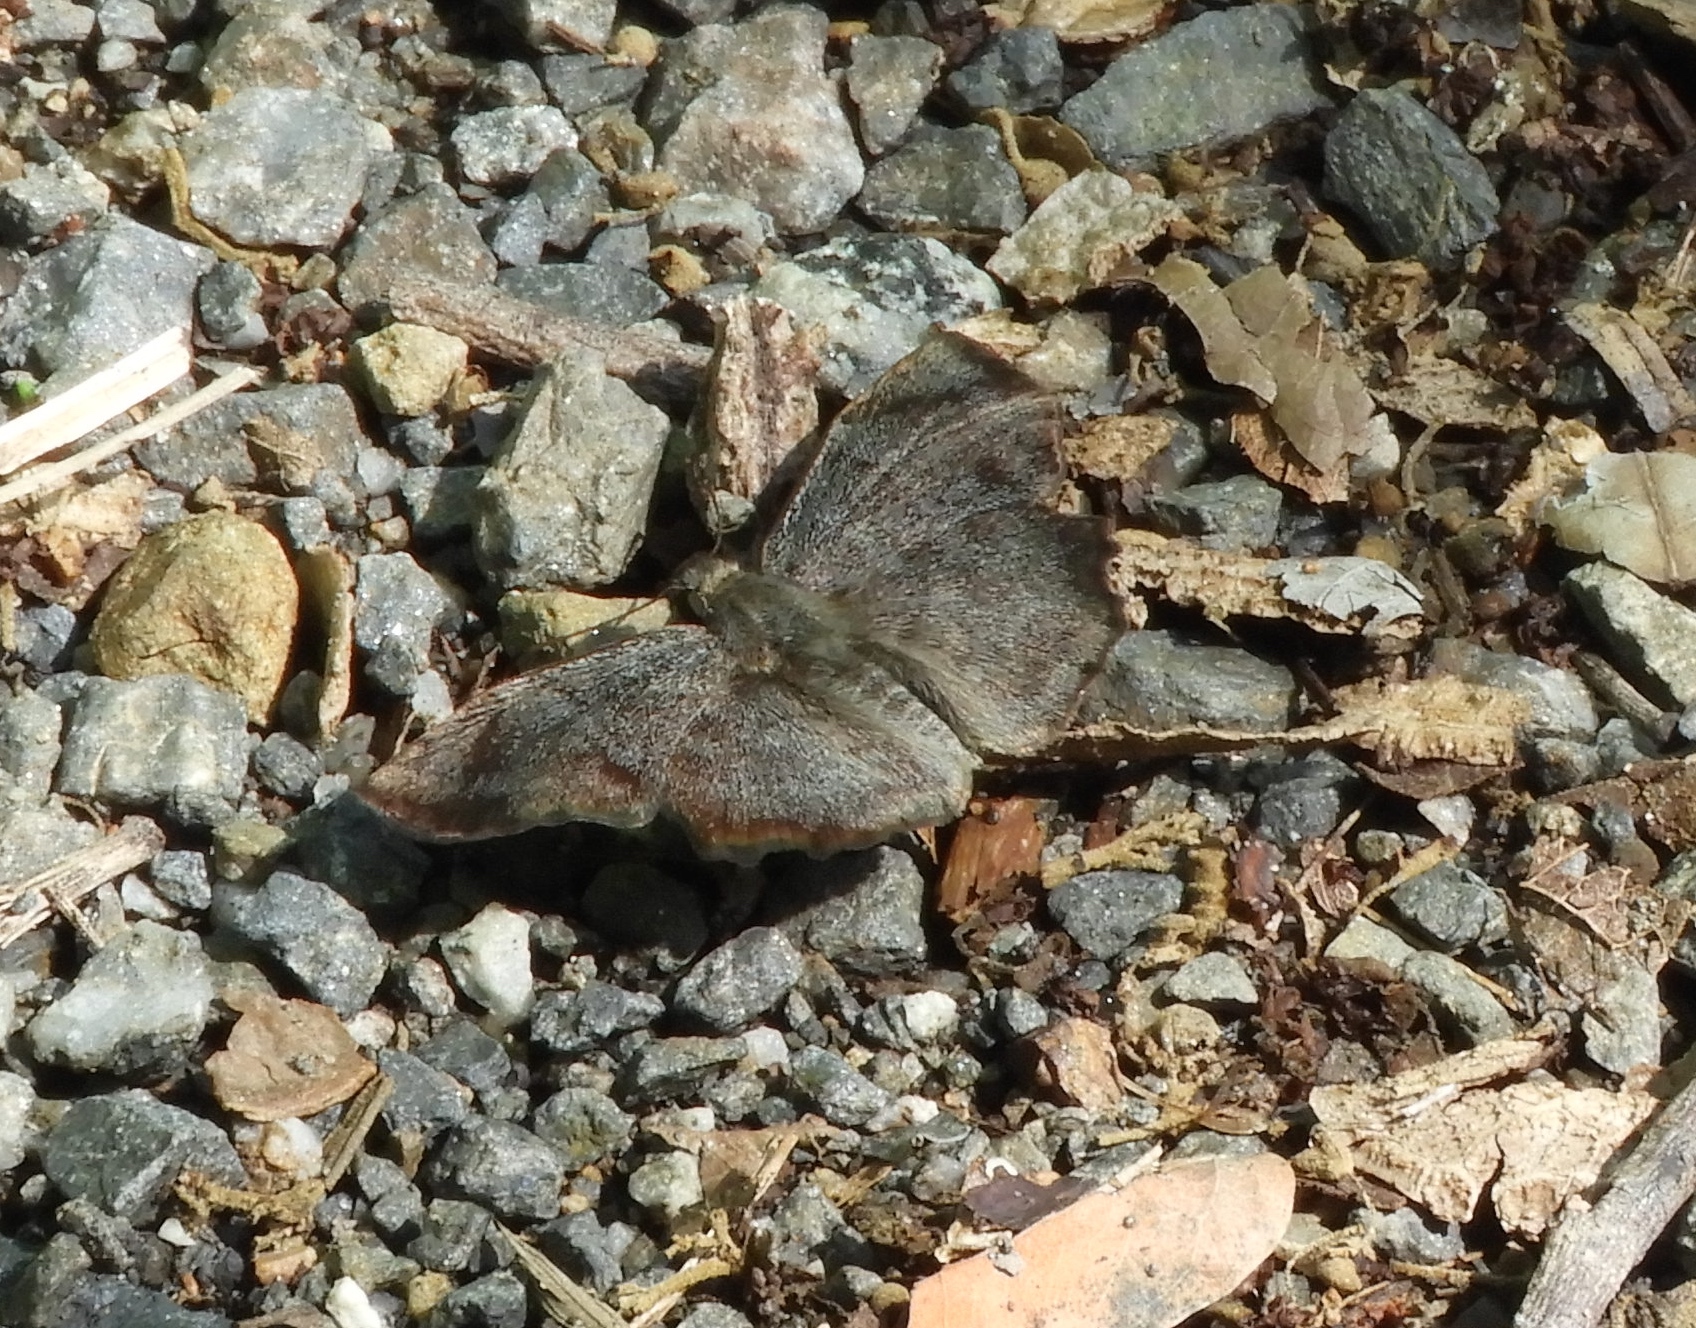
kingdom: Animalia
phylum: Arthropoda
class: Insecta
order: Lepidoptera
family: Hesperiidae
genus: Antigonus
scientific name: Antigonus erosus
